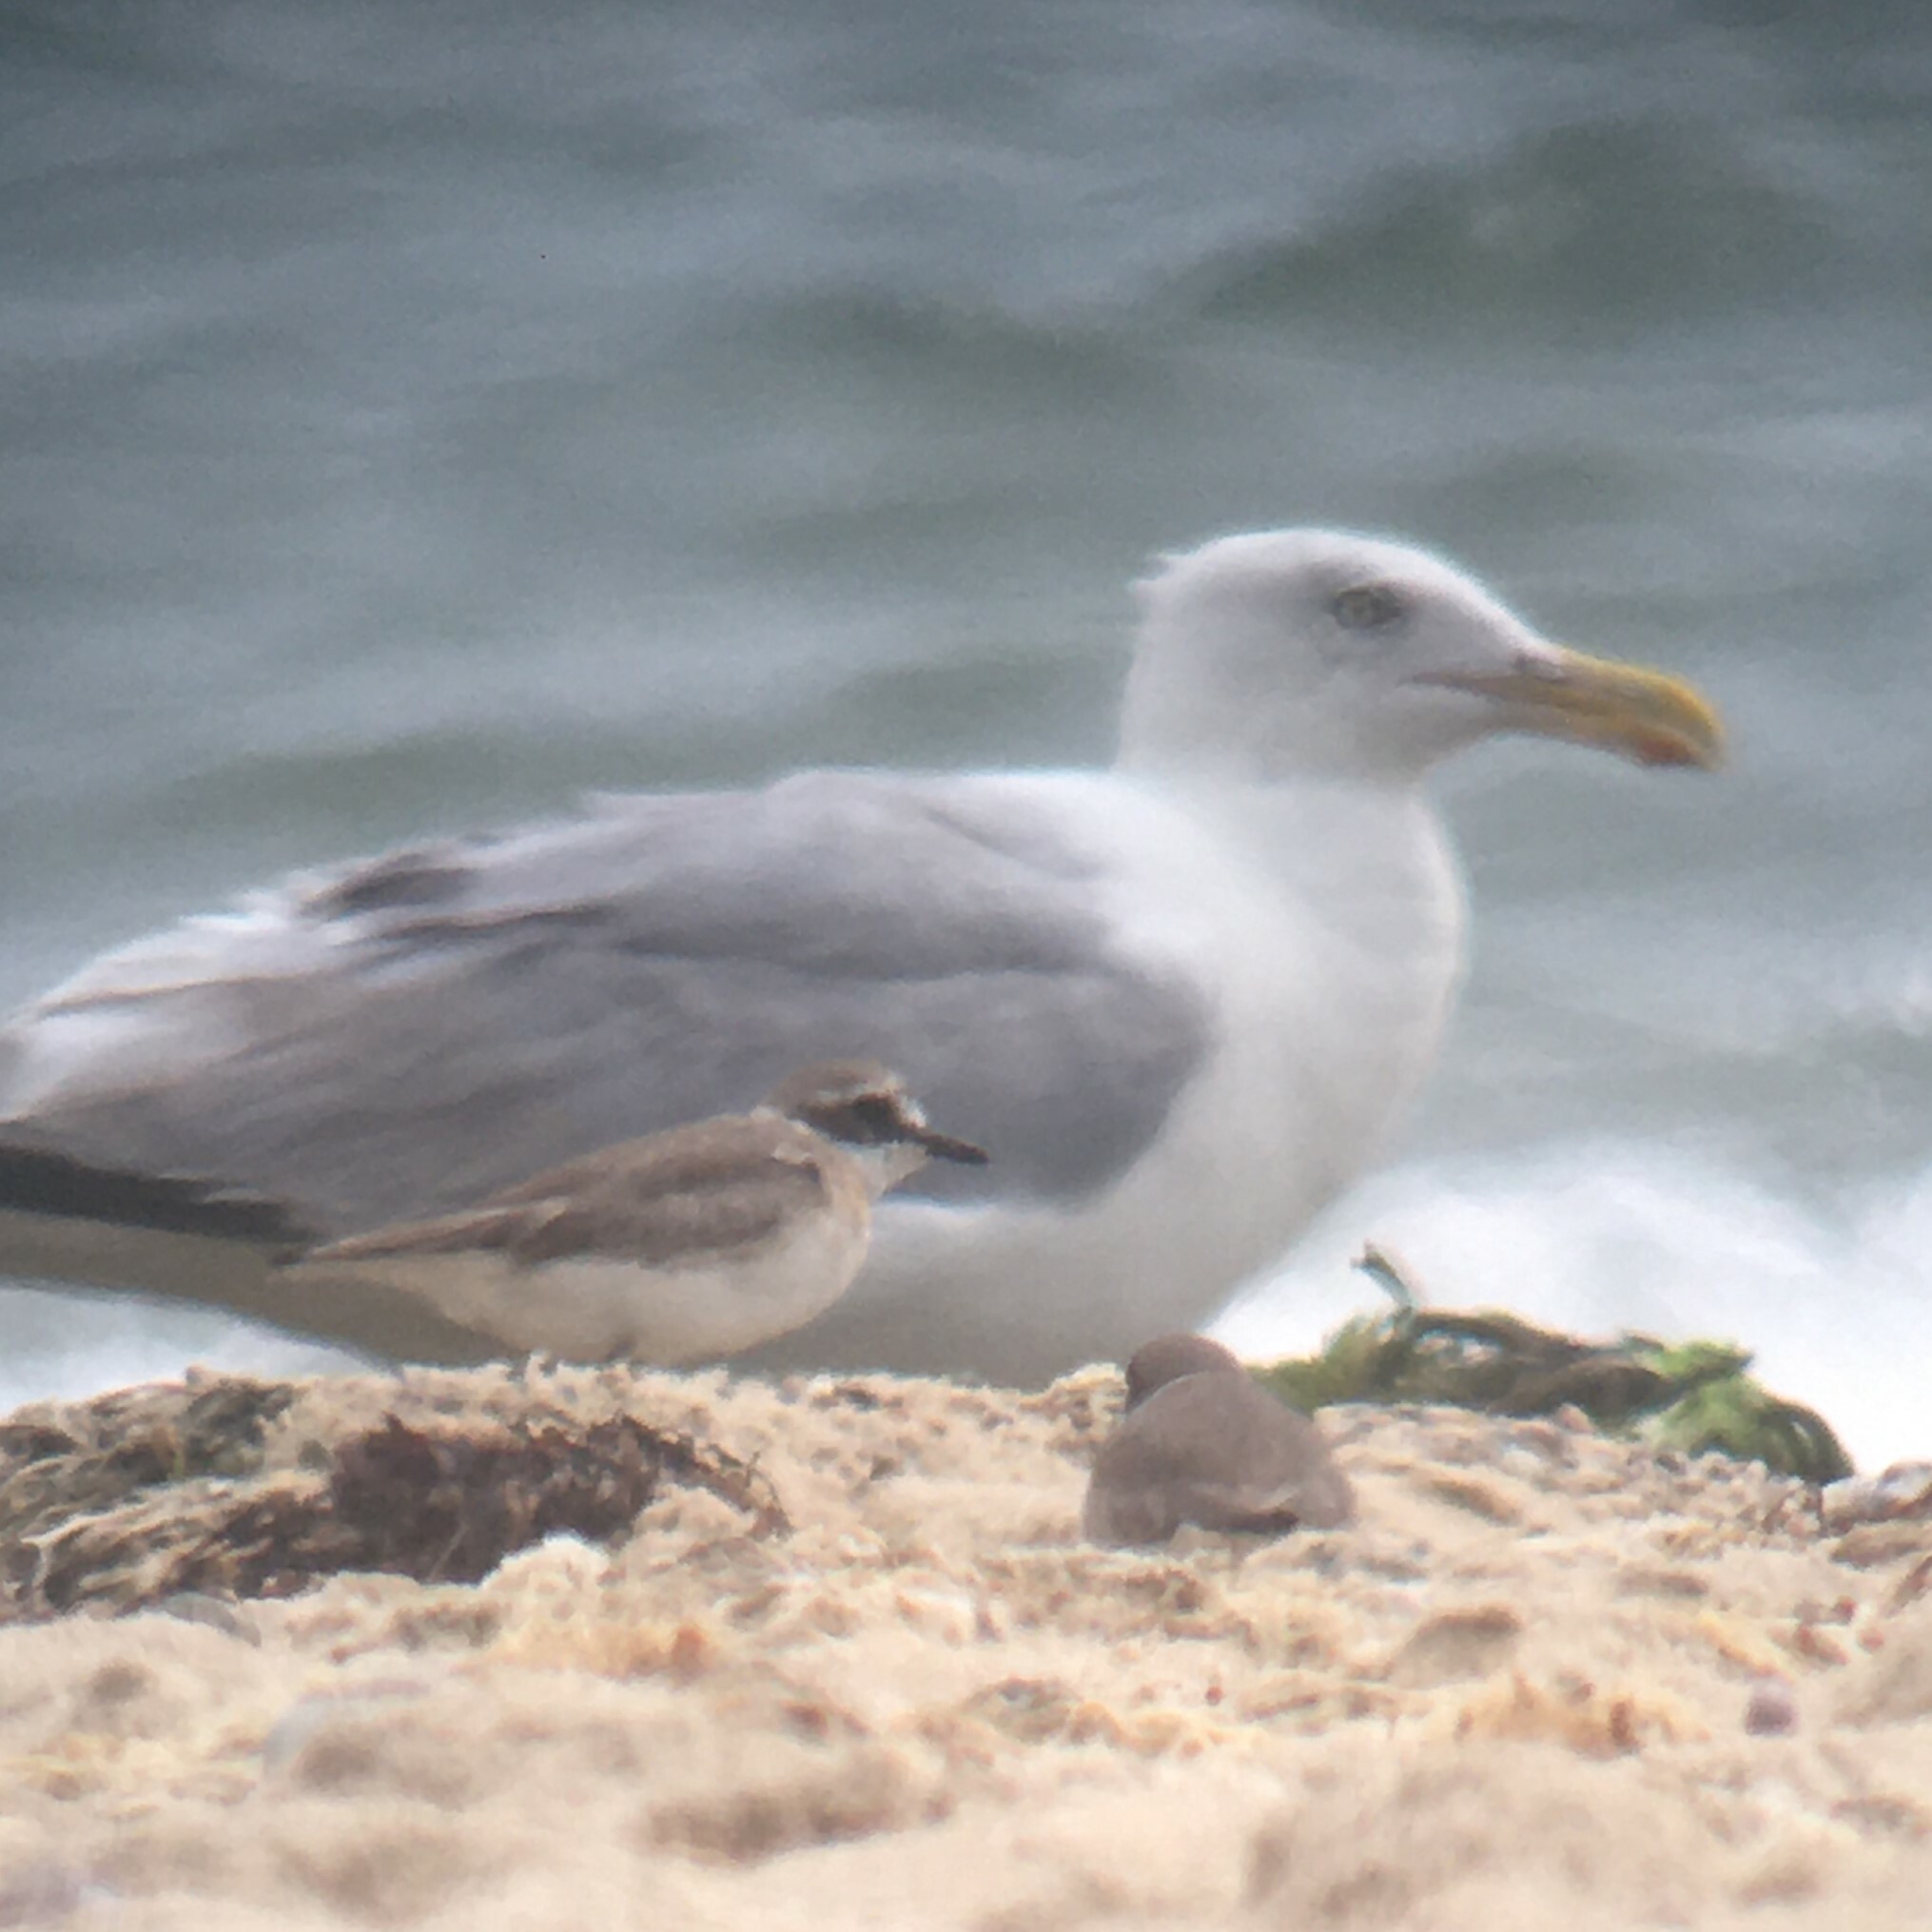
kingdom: Animalia
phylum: Chordata
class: Aves
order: Charadriiformes
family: Laridae
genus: Larus
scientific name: Larus argentatus
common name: Herring gull
